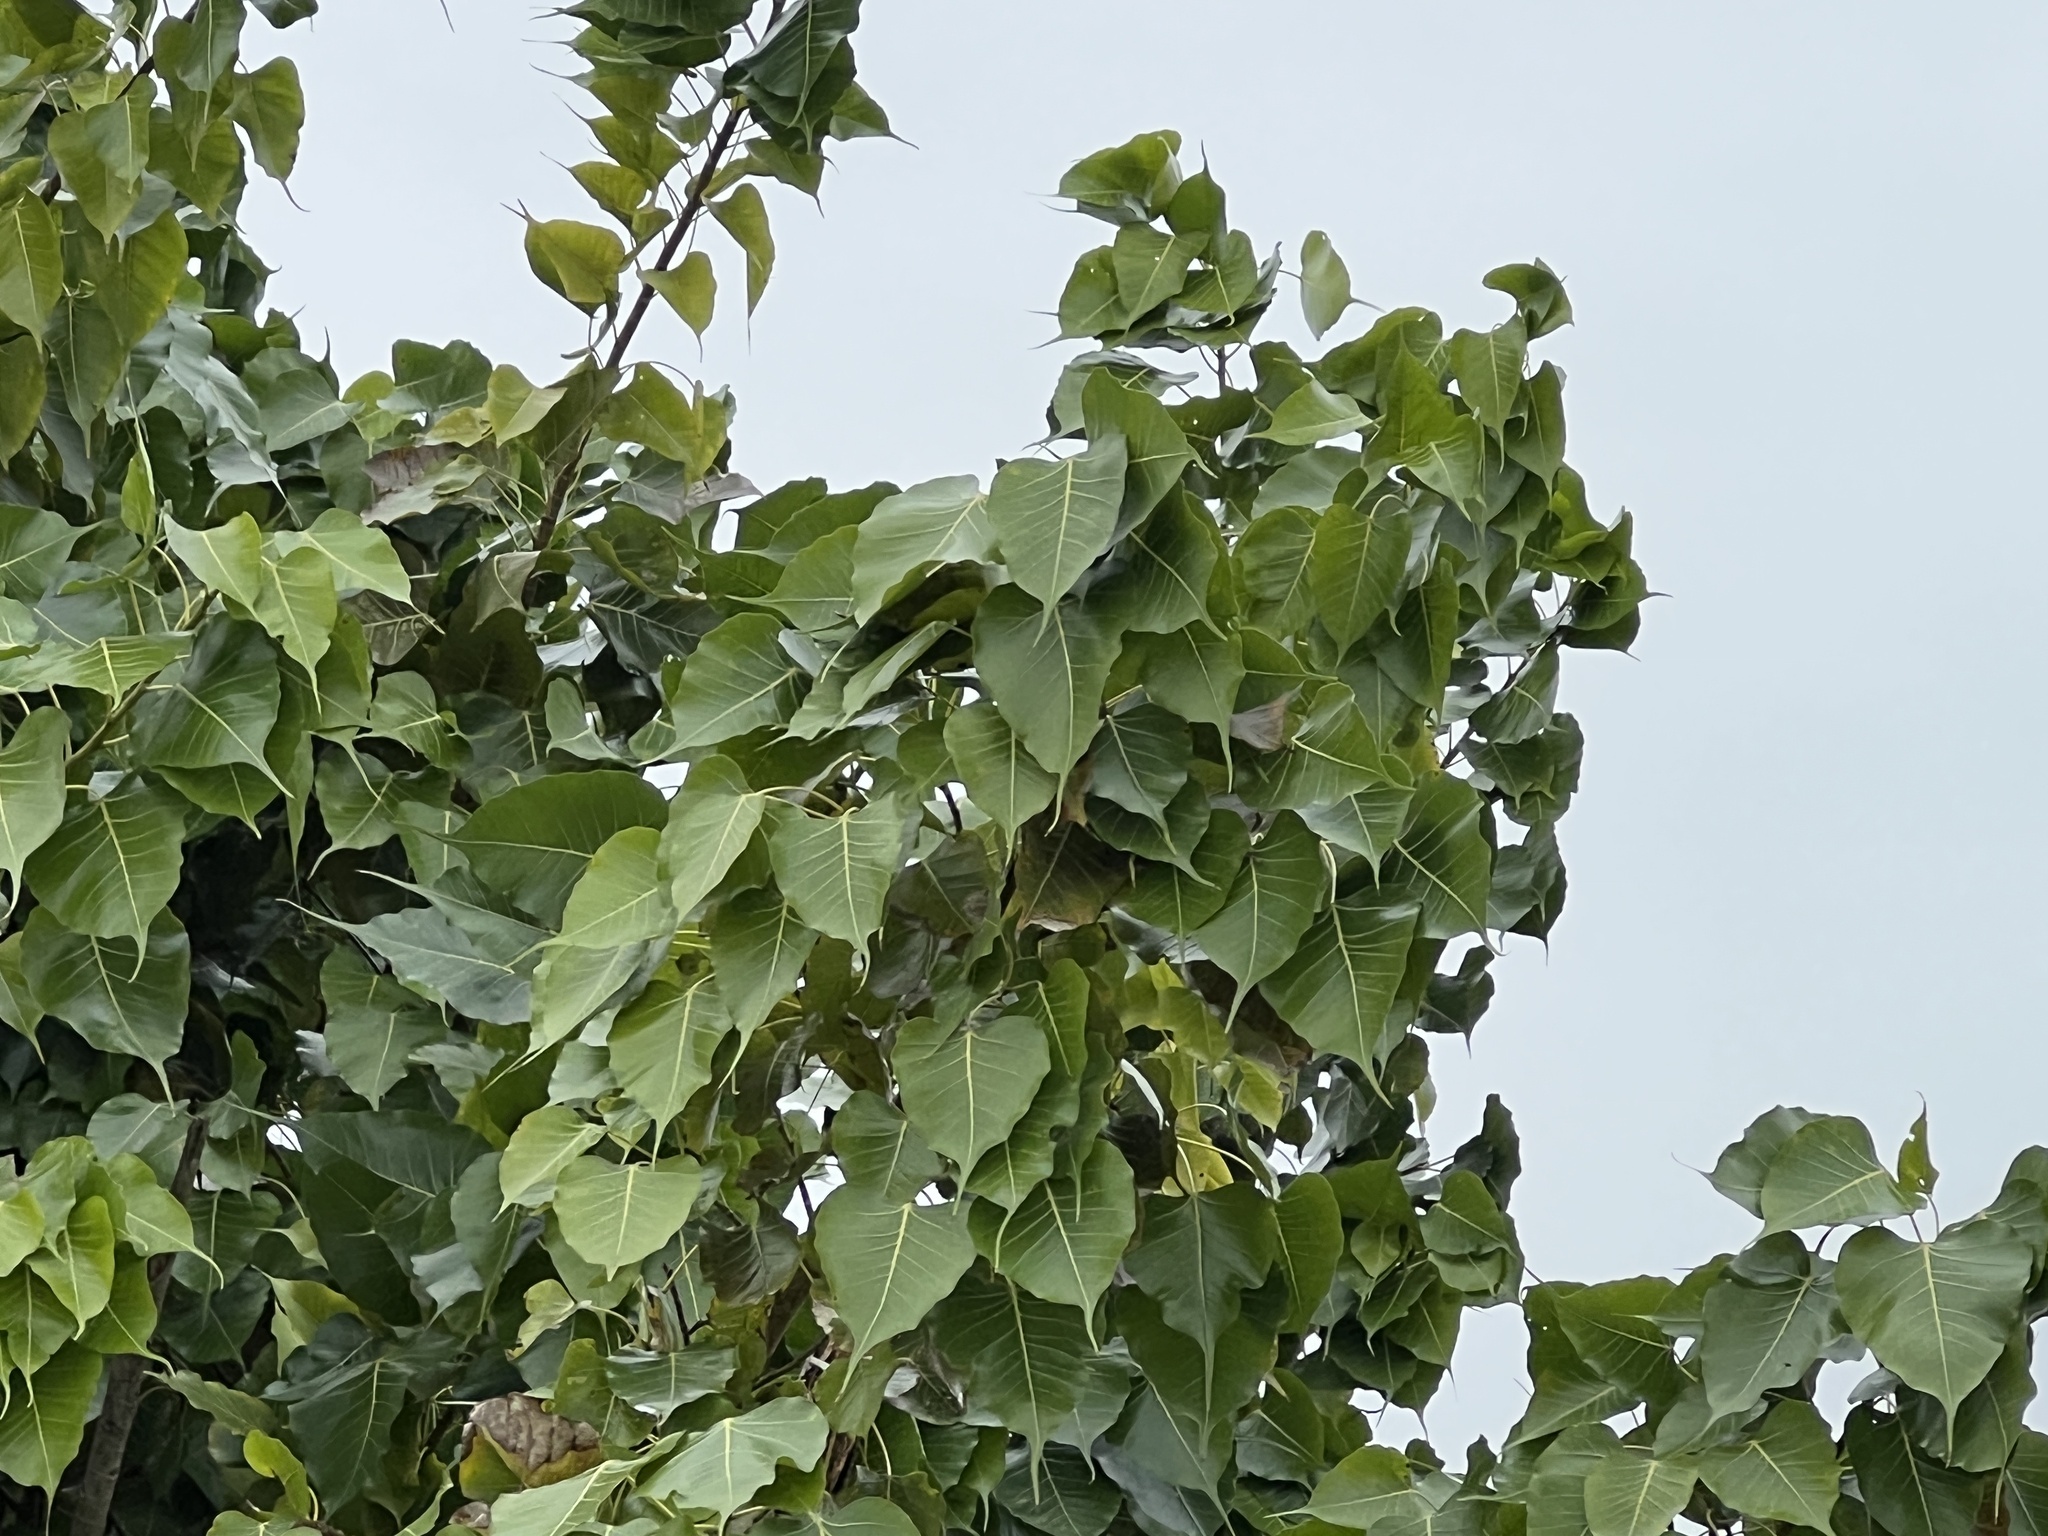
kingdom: Plantae
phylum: Tracheophyta
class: Magnoliopsida
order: Rosales
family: Moraceae
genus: Ficus
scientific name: Ficus religiosa
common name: Bodhi tree
